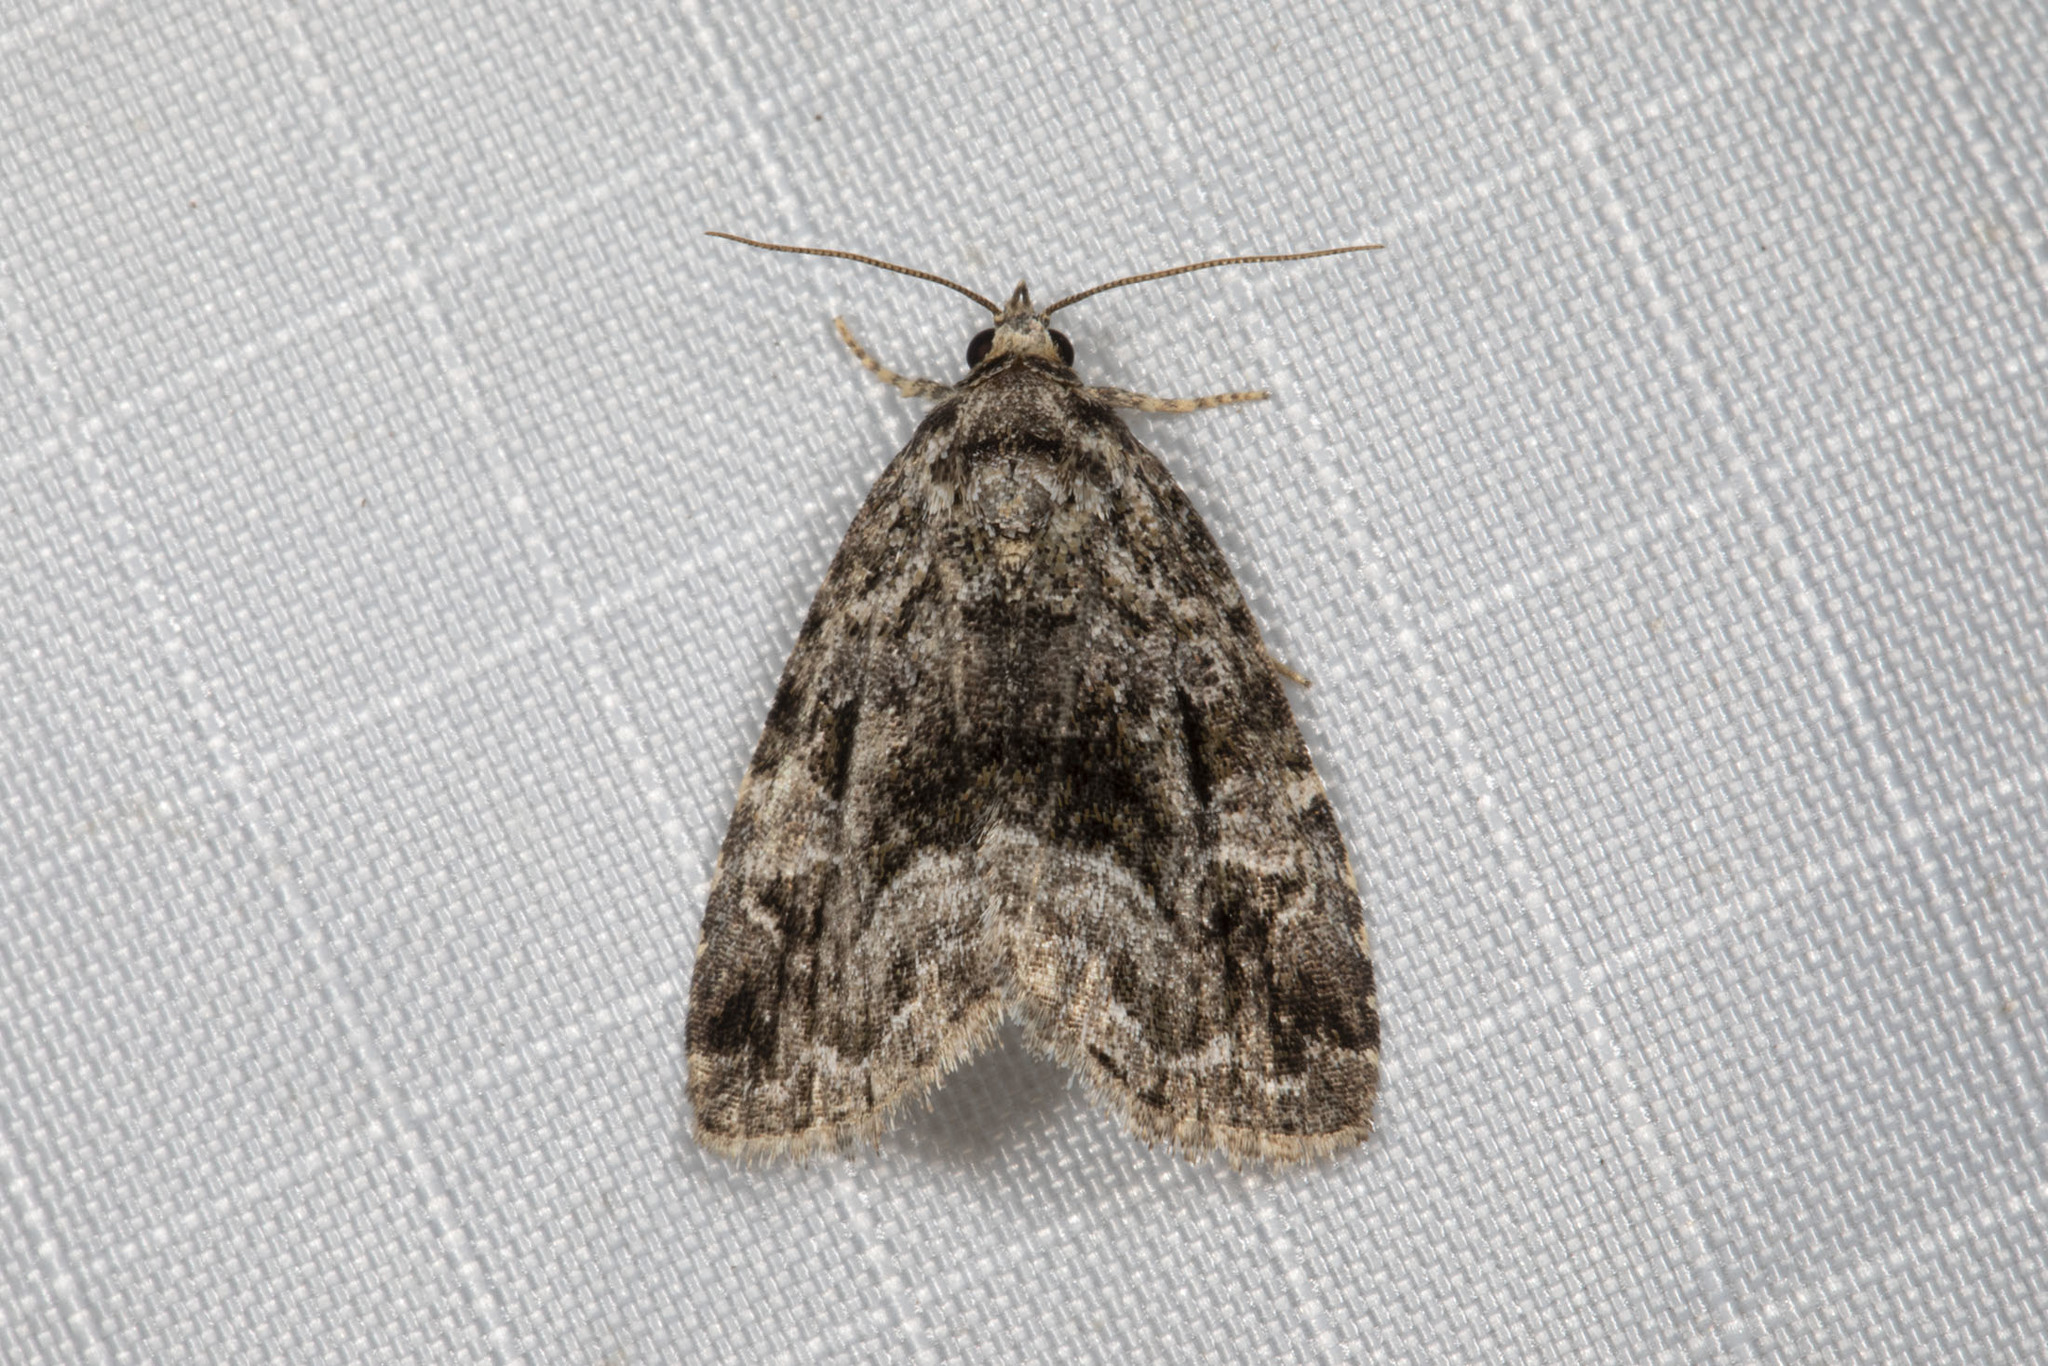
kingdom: Animalia
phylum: Arthropoda
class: Insecta
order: Lepidoptera
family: Noctuidae
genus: Protodeltote
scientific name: Protodeltote muscosula
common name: Large mossy glyph
